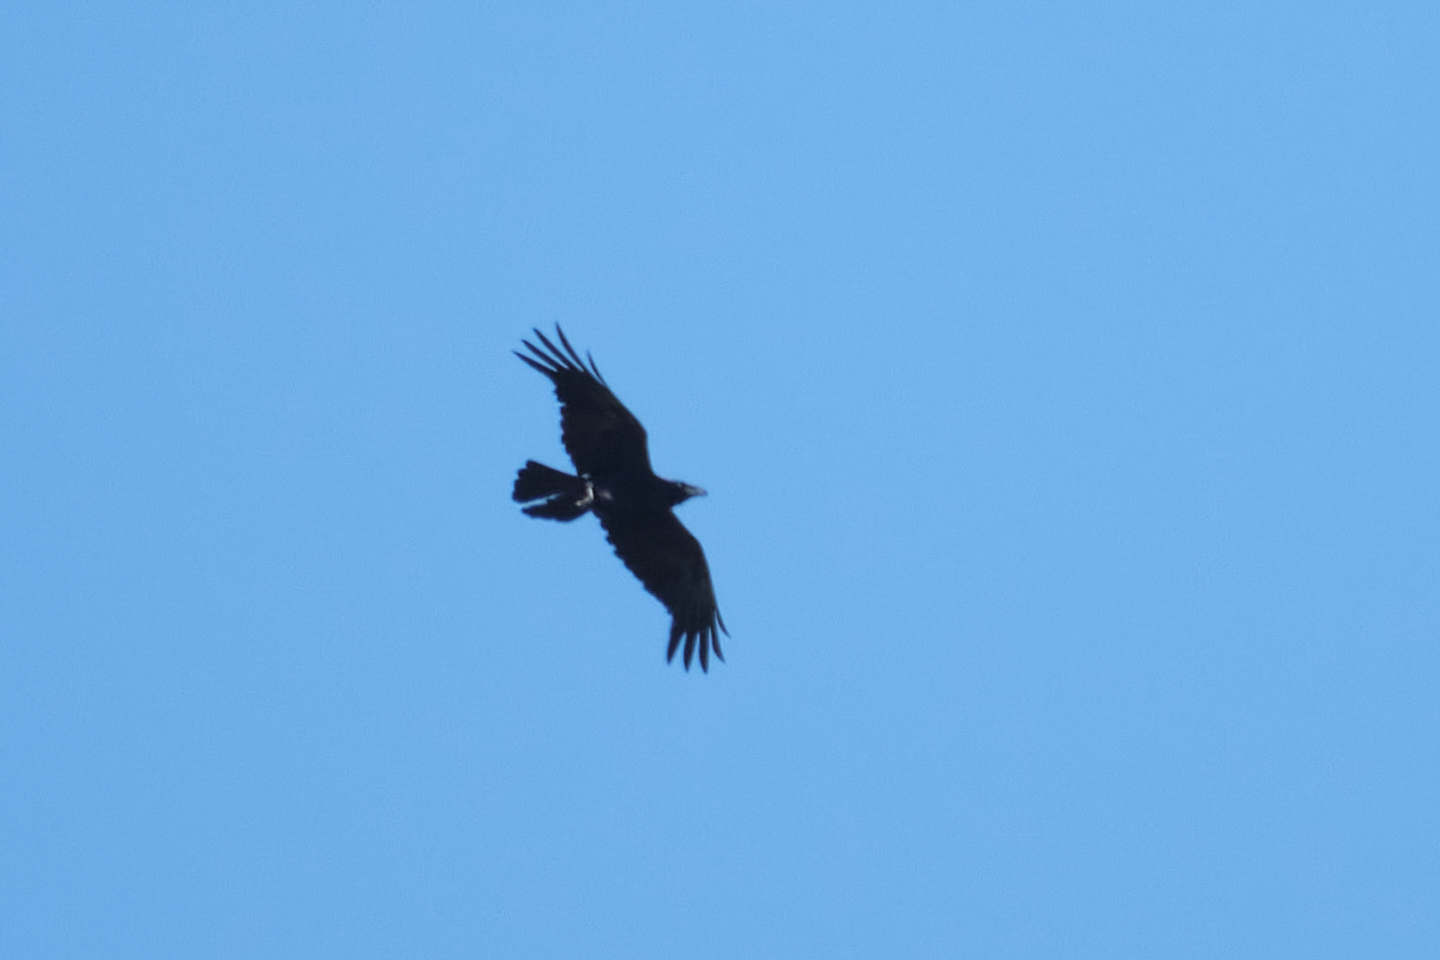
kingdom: Animalia
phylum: Chordata
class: Aves
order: Passeriformes
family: Corvidae
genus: Corvus
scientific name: Corvus corax
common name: Common raven
